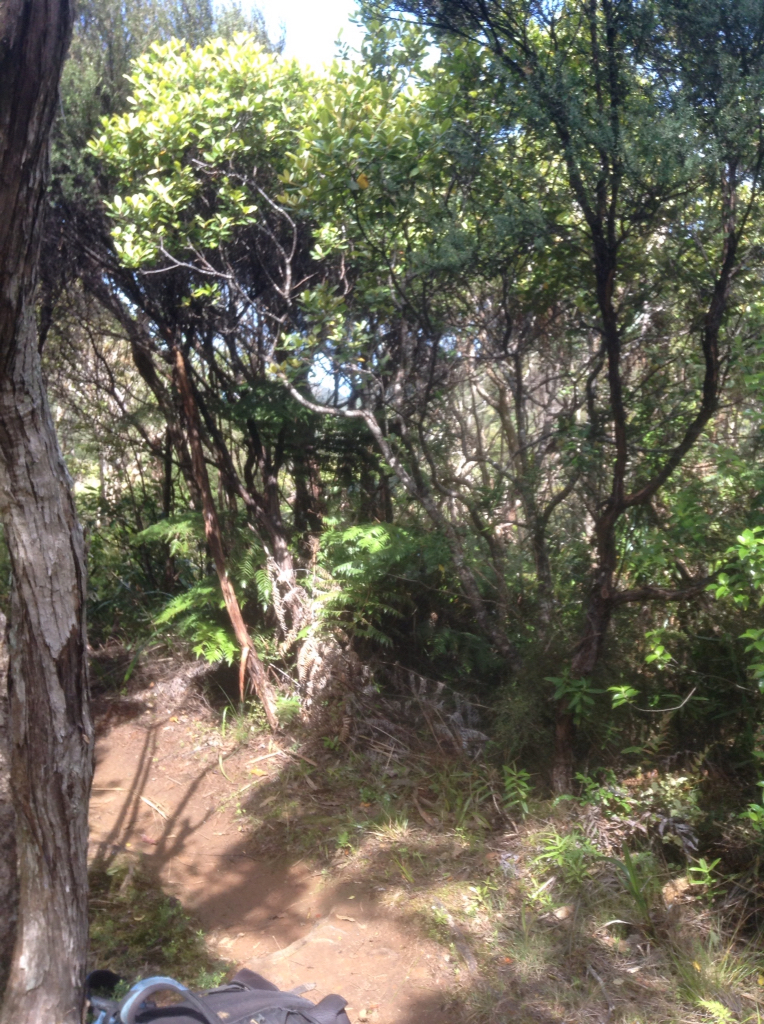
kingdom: Plantae
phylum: Tracheophyta
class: Magnoliopsida
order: Apiales
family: Pittosporaceae
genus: Pittosporum
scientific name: Pittosporum ellipticum
